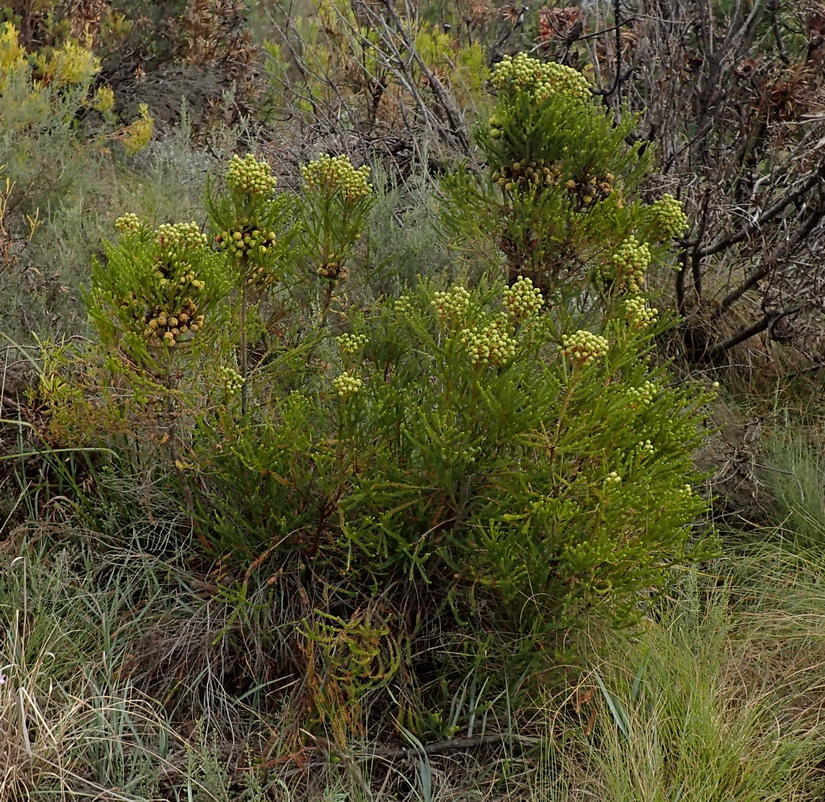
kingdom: Plantae
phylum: Tracheophyta
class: Magnoliopsida
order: Bruniales
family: Bruniaceae
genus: Berzelia
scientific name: Berzelia abrotanoides
